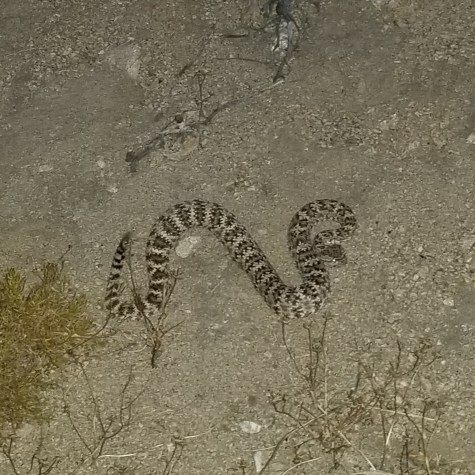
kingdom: Animalia
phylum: Chordata
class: Squamata
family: Viperidae
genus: Crotalus
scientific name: Crotalus pyrrhus
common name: Southwestern speckled rattlesnake
